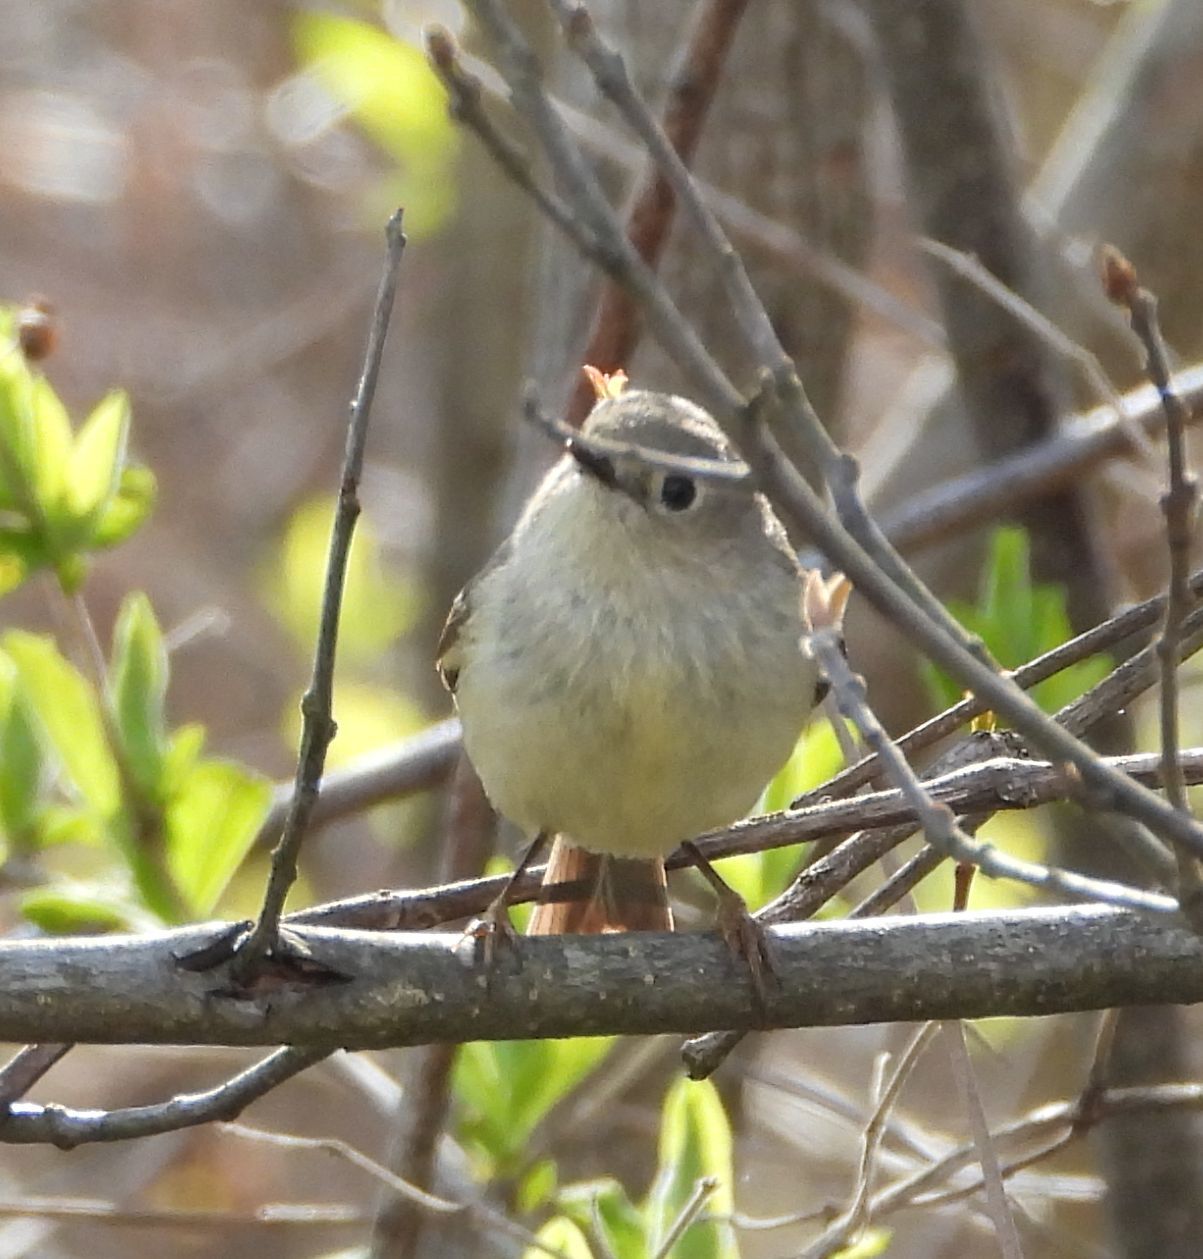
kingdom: Animalia
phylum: Chordata
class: Aves
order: Passeriformes
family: Regulidae
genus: Regulus
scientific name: Regulus calendula
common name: Ruby-crowned kinglet
